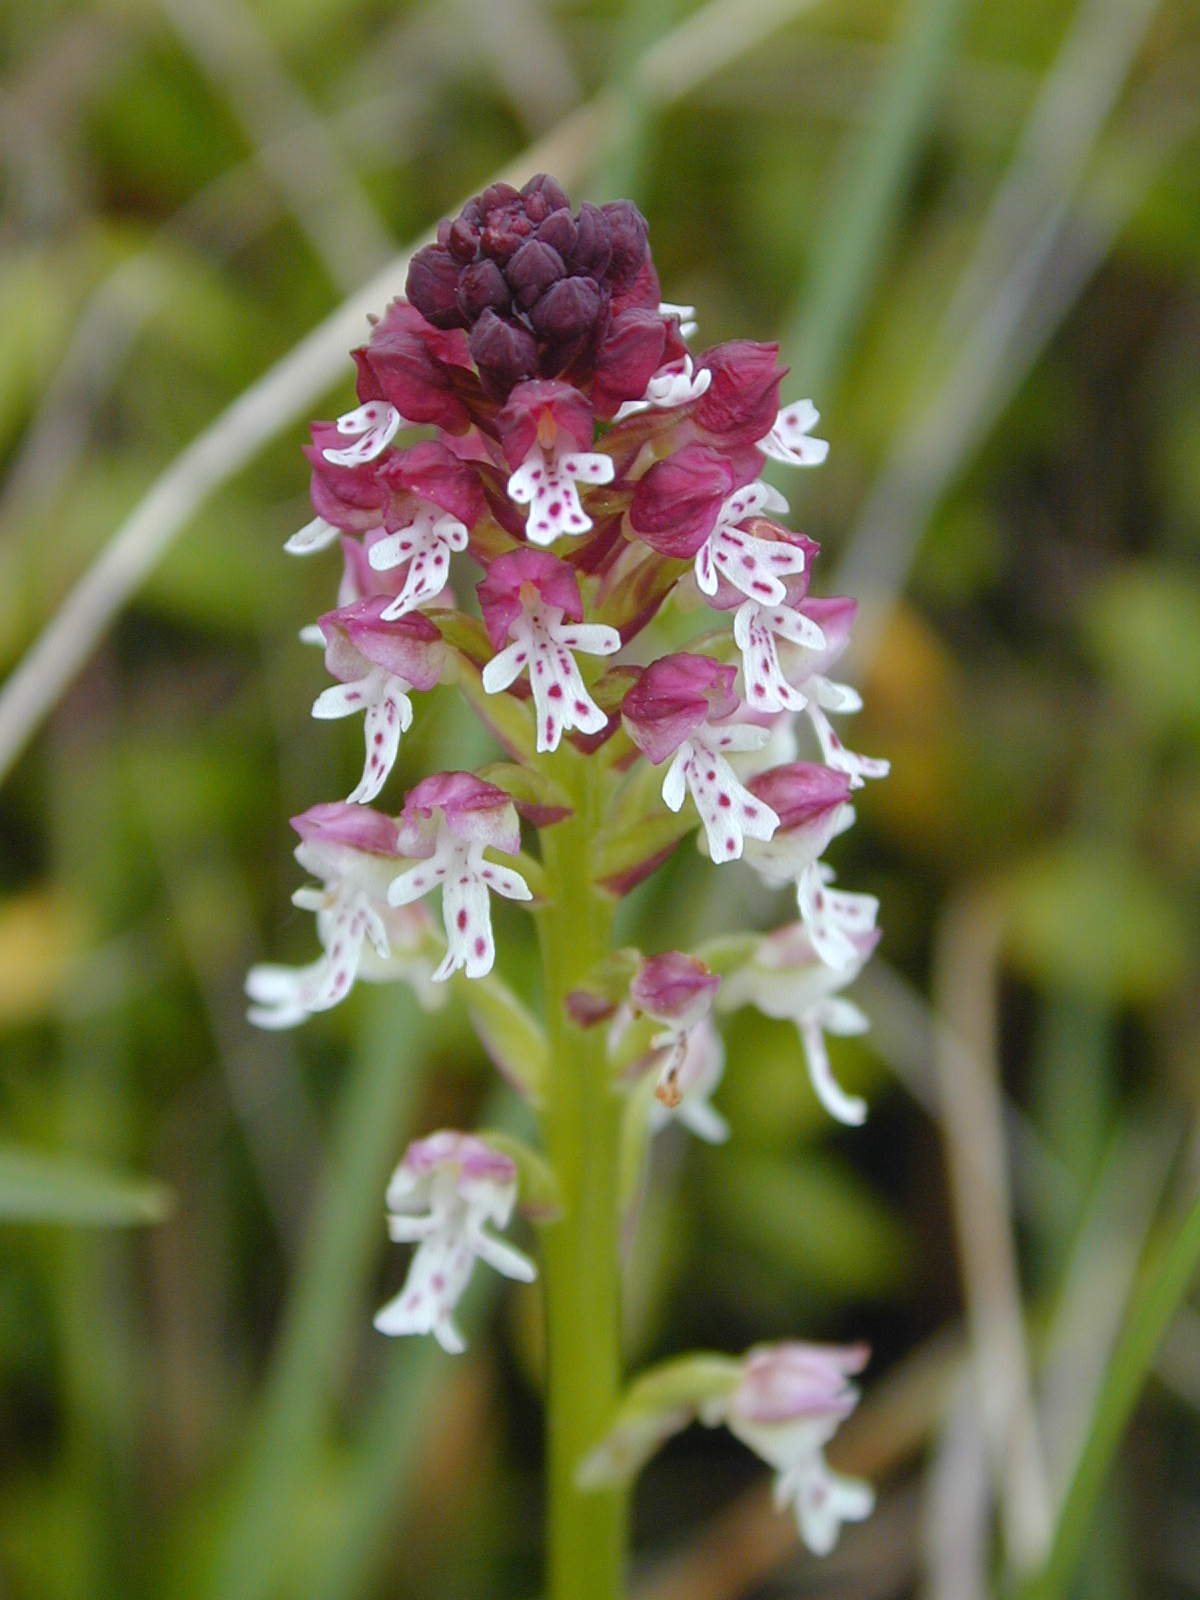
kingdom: Plantae
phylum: Tracheophyta
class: Liliopsida
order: Asparagales
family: Orchidaceae
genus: Neotinea
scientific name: Neotinea ustulata
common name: Burnt orchid
